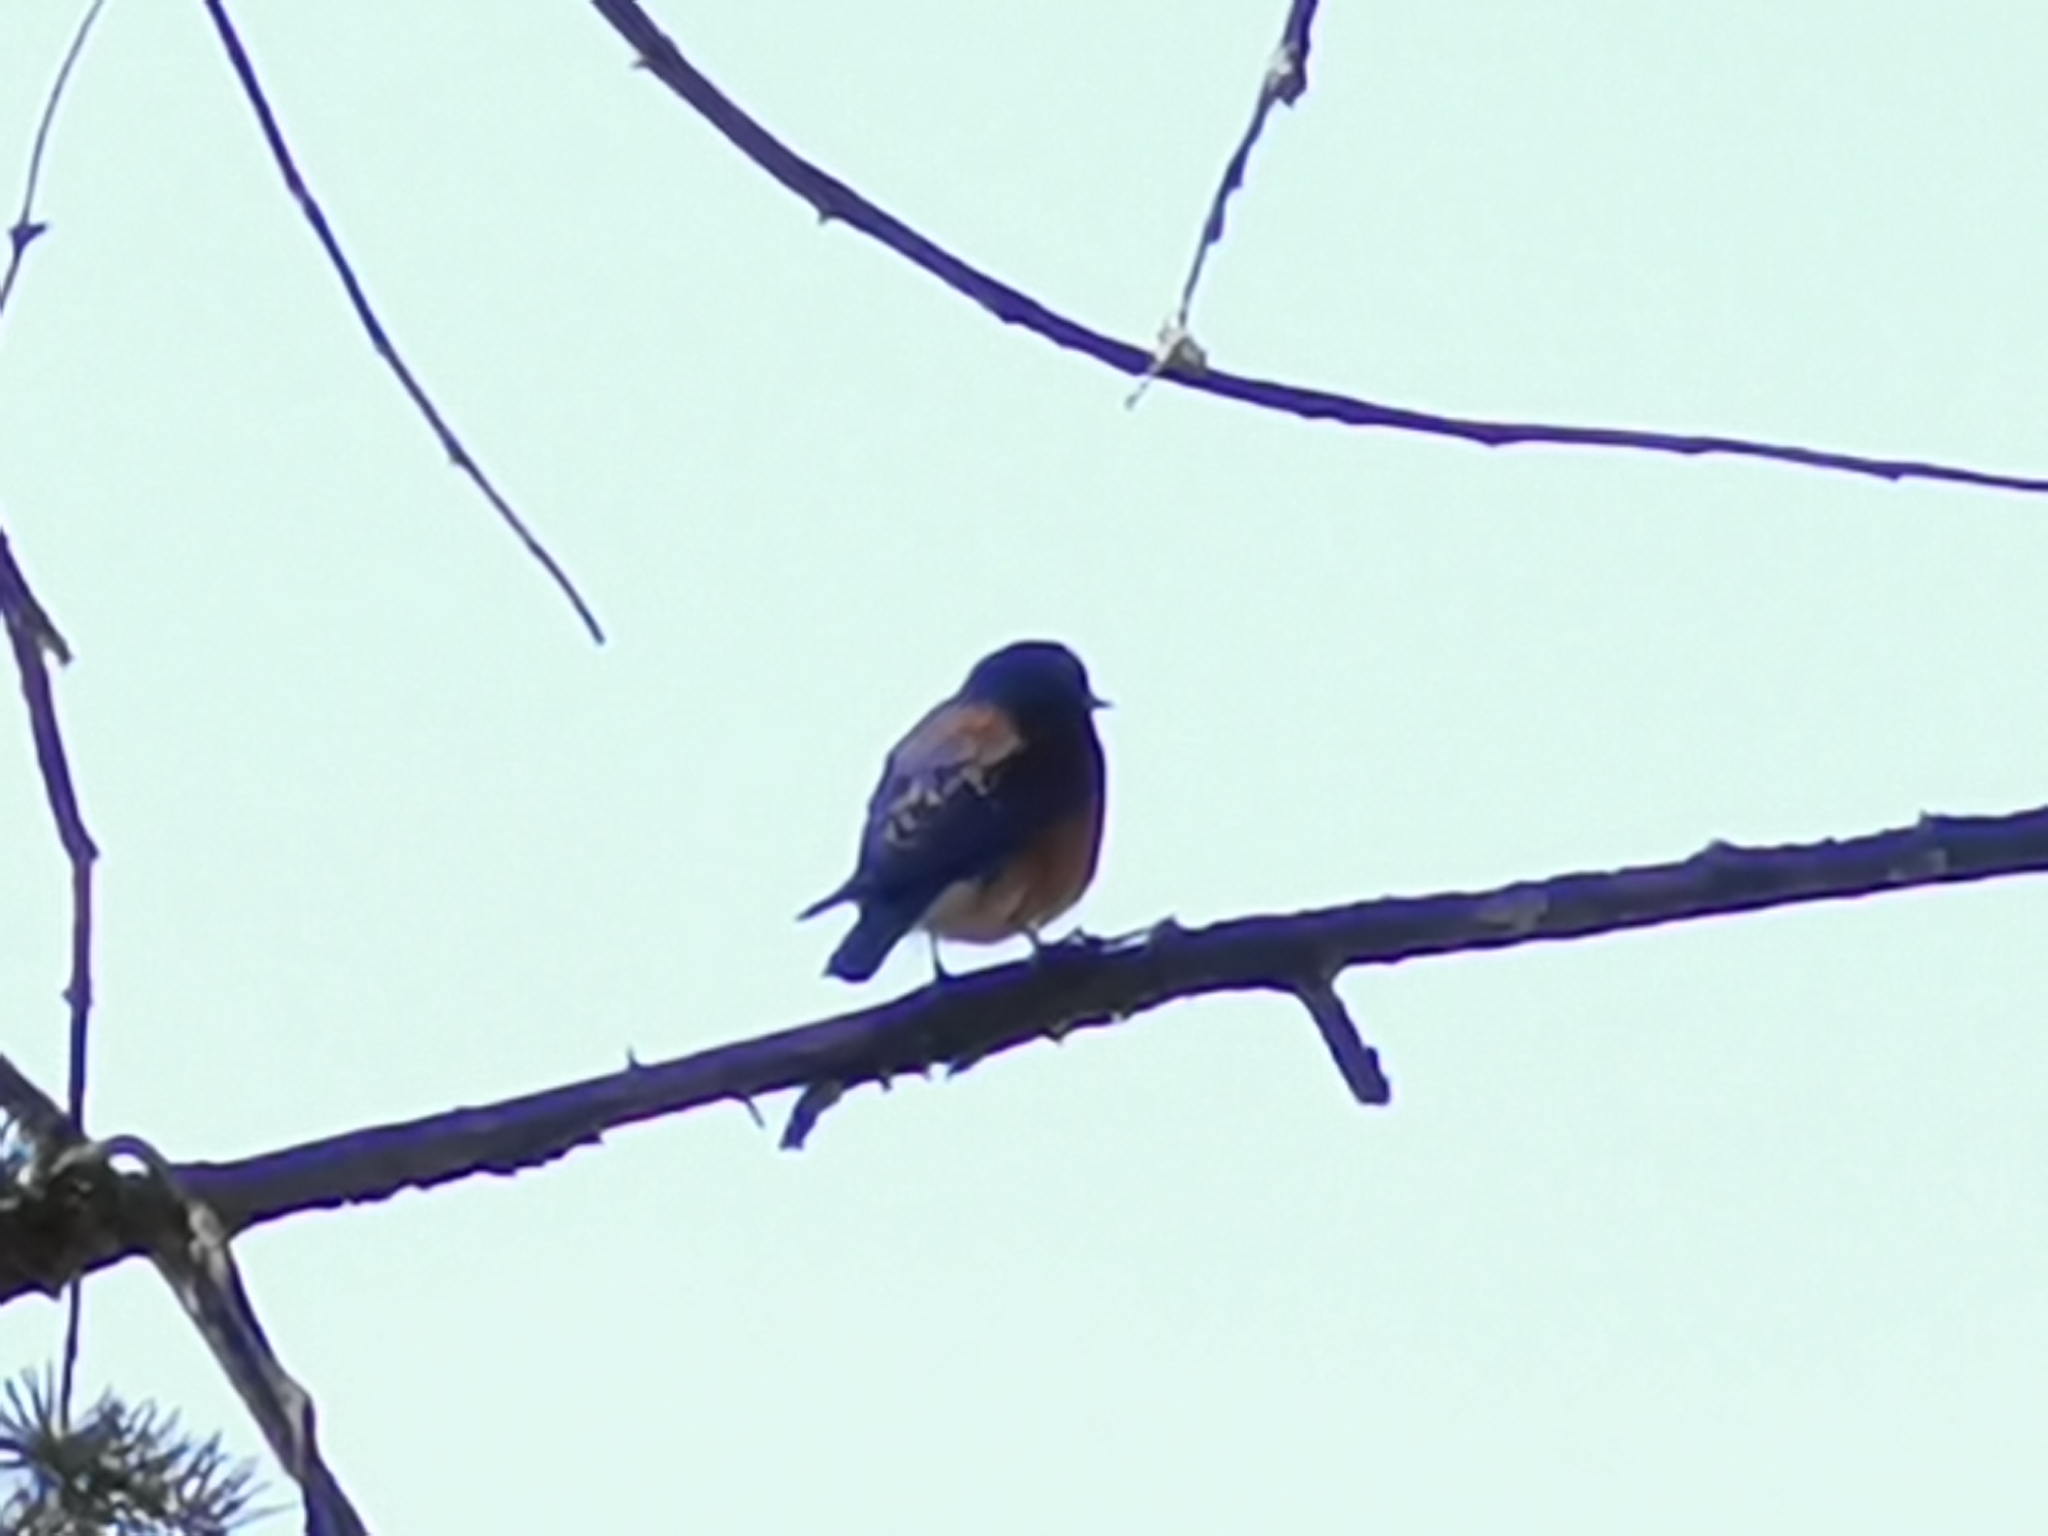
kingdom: Animalia
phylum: Chordata
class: Aves
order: Passeriformes
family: Turdidae
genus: Sialia
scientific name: Sialia mexicana
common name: Western bluebird
